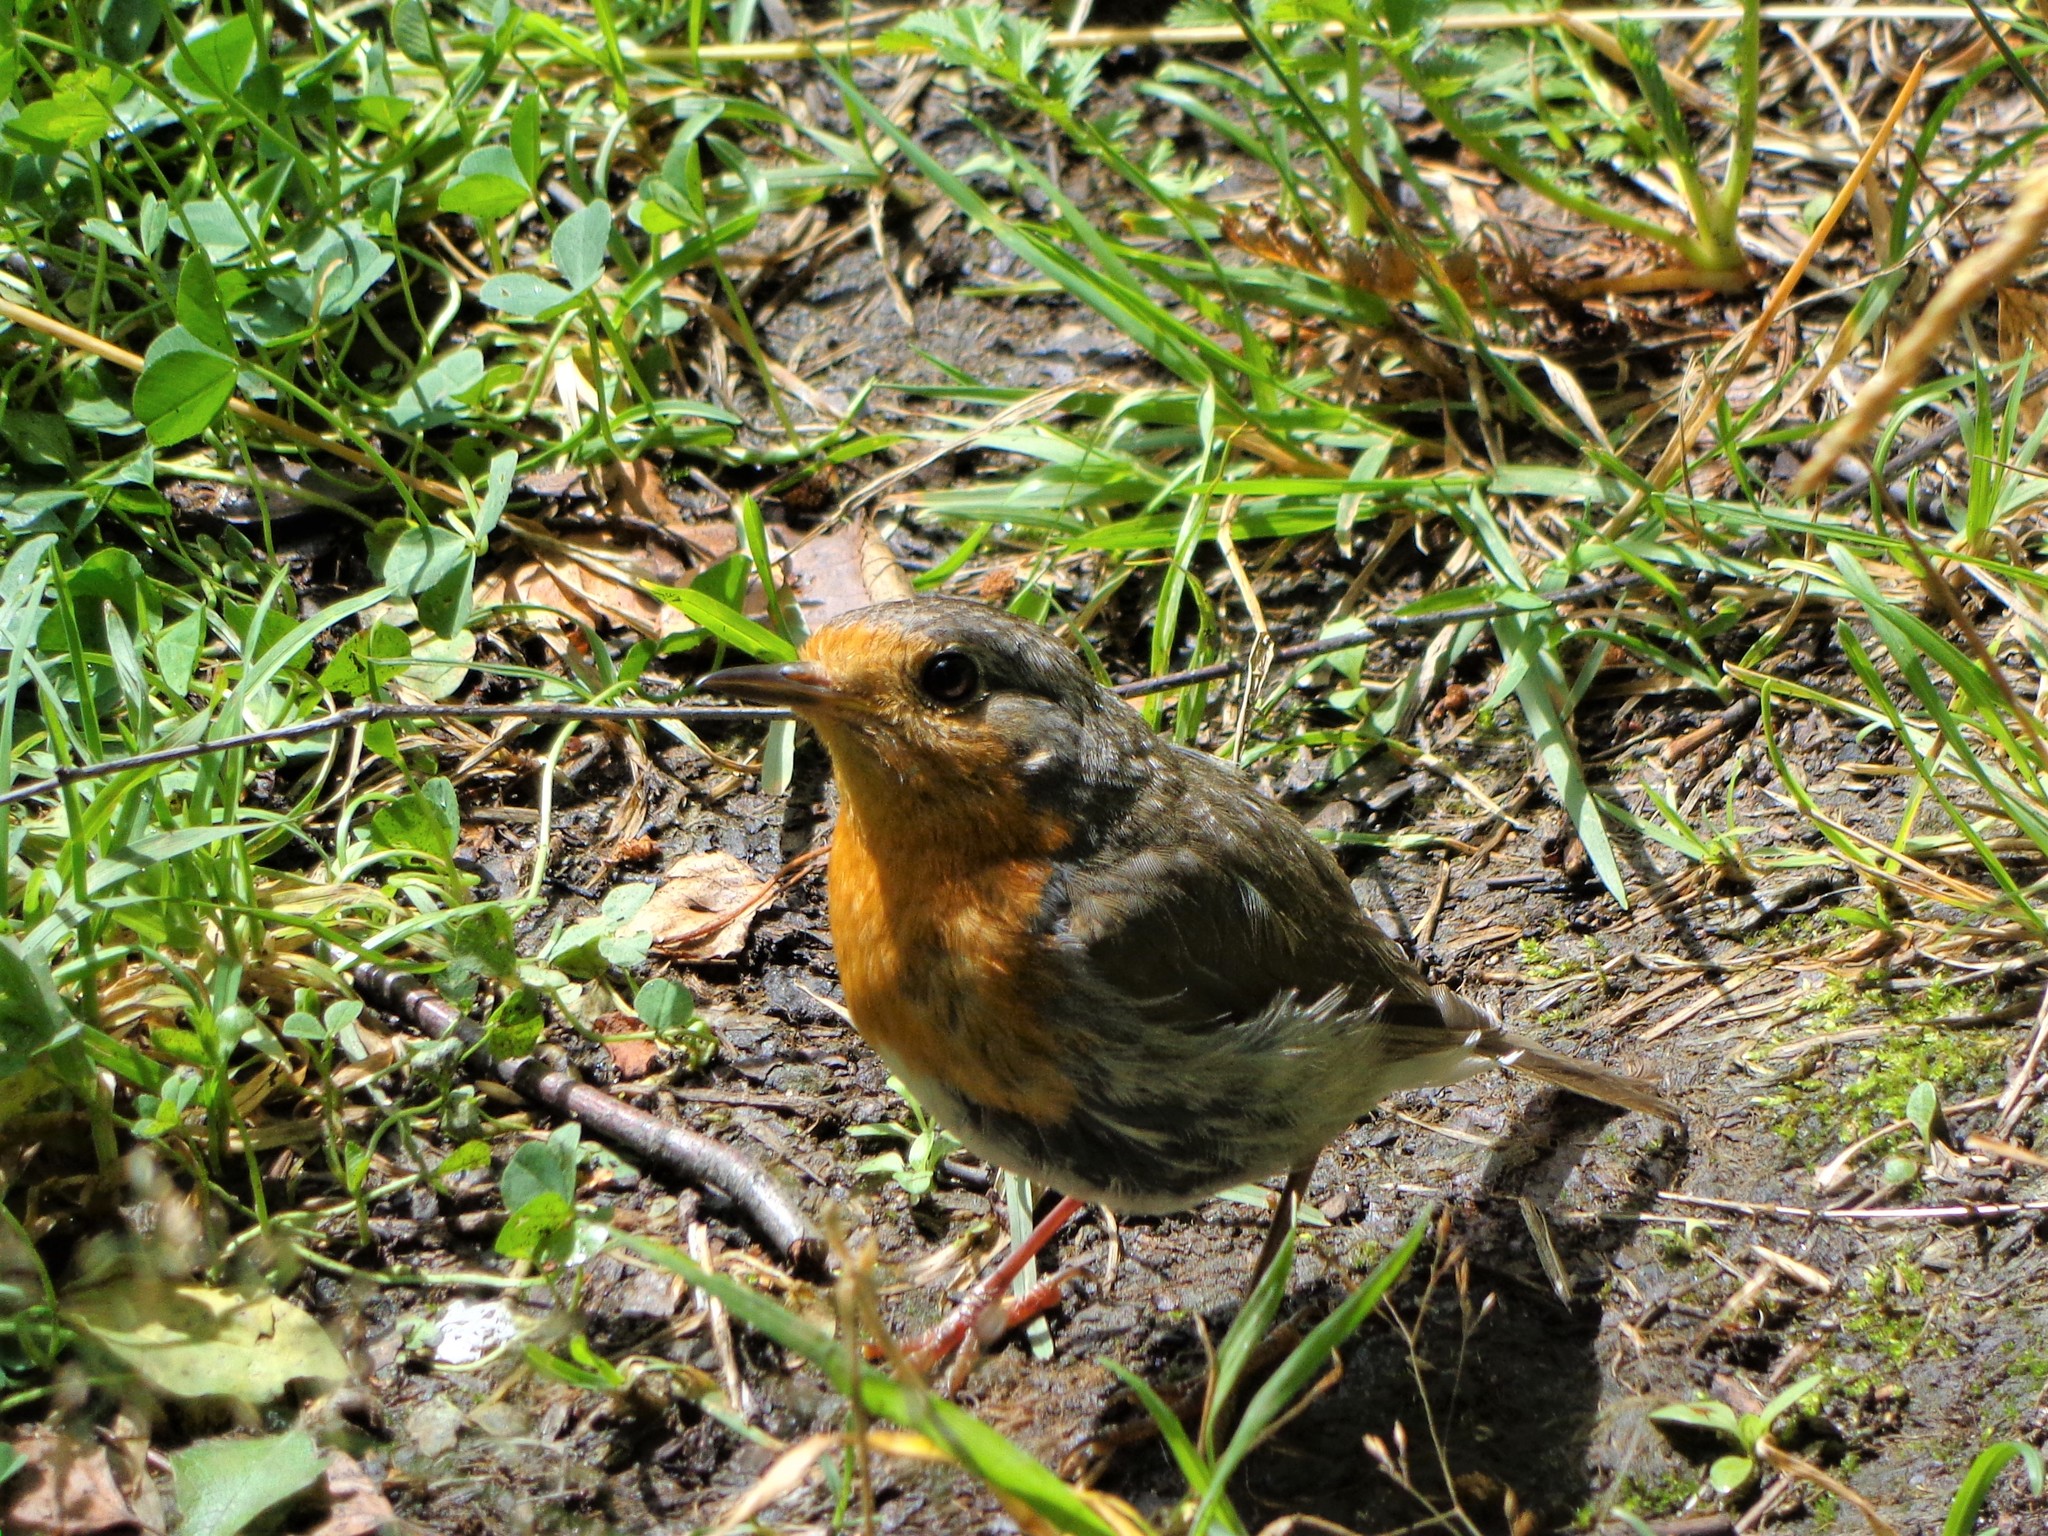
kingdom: Animalia
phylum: Chordata
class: Aves
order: Passeriformes
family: Muscicapidae
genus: Erithacus
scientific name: Erithacus rubecula
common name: European robin
